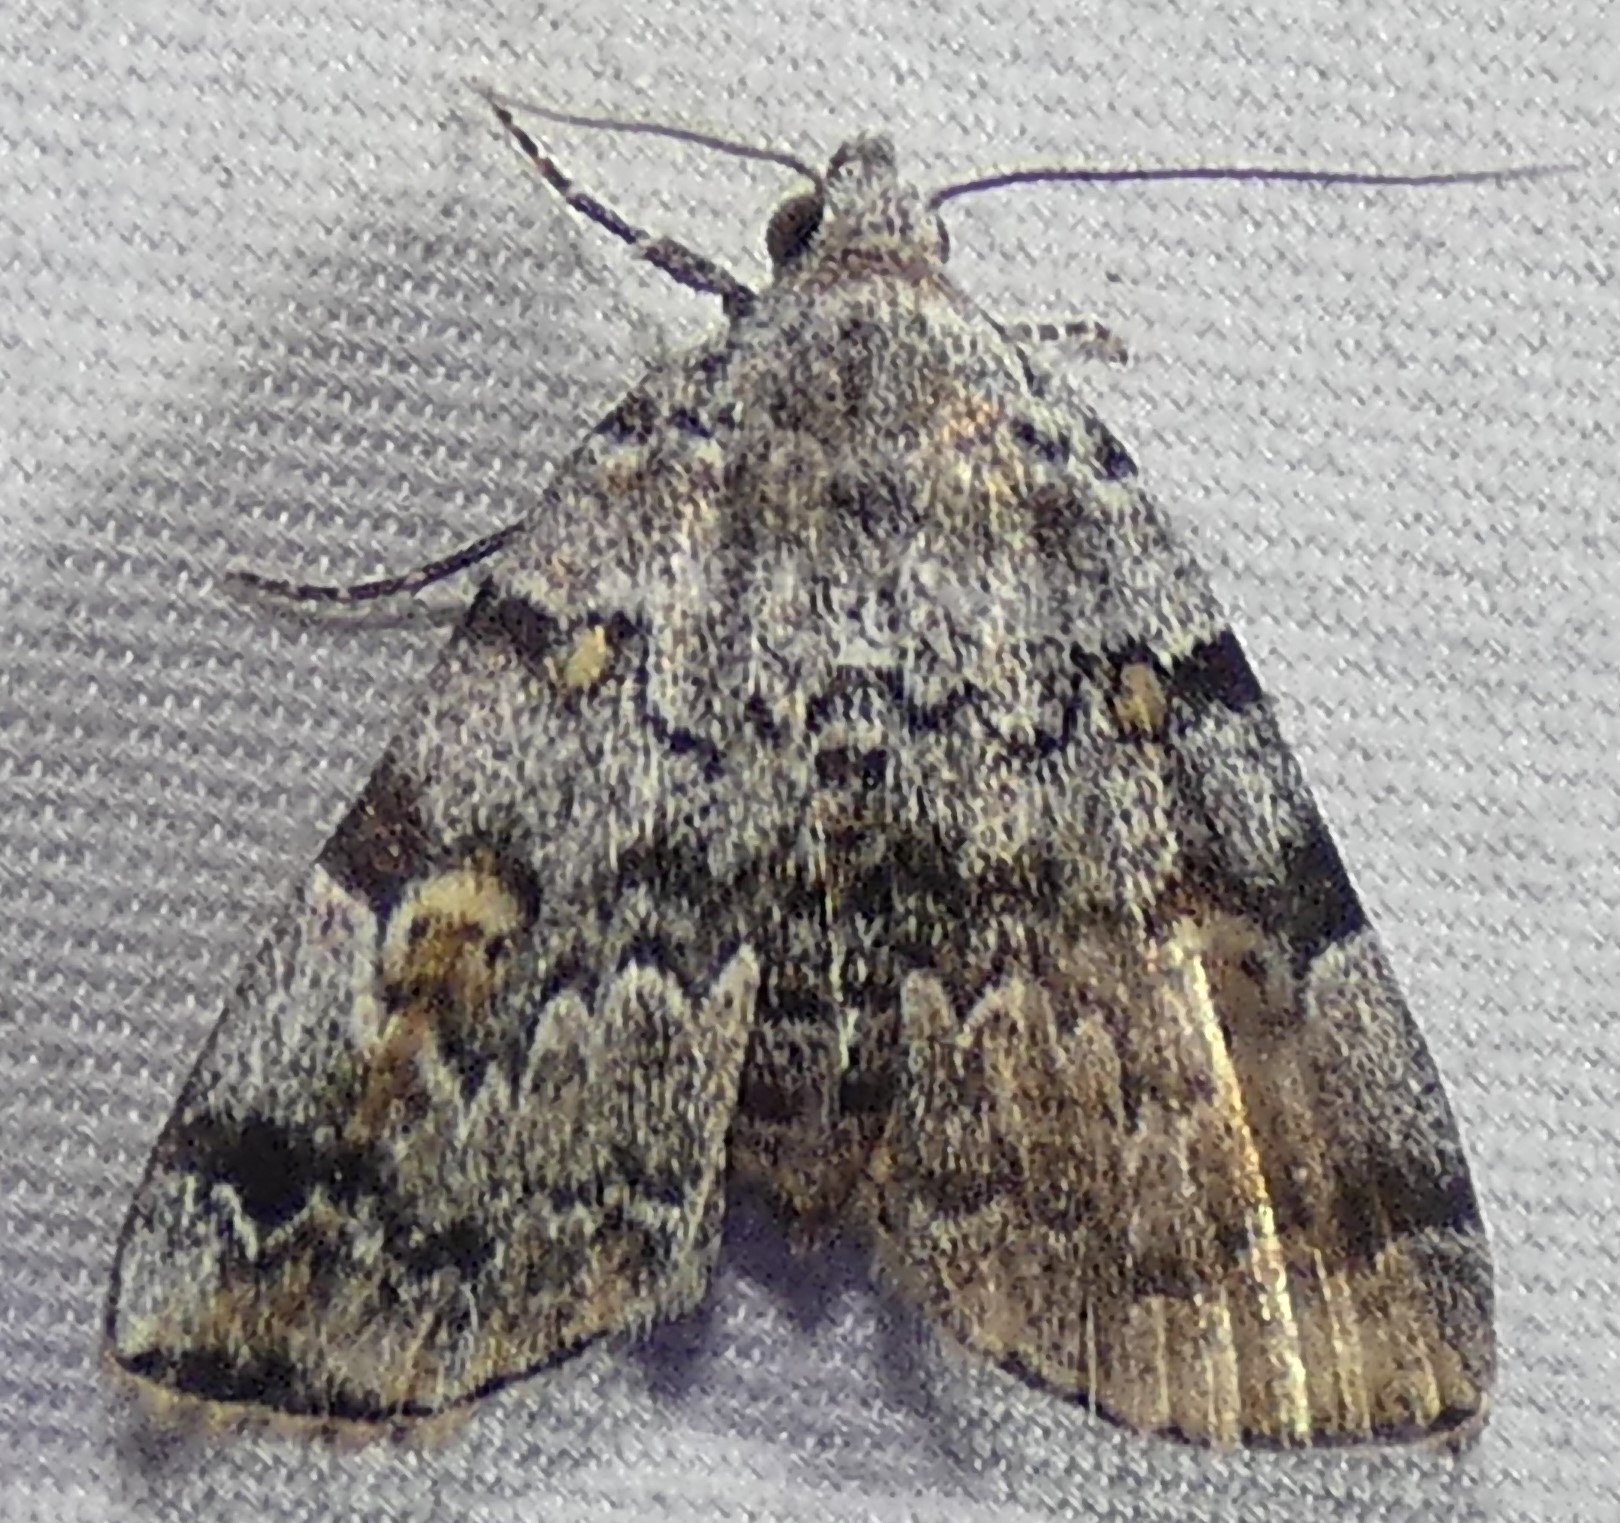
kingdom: Animalia
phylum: Arthropoda
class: Insecta
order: Lepidoptera
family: Erebidae
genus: Idia
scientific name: Idia americalis
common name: American idia moth
